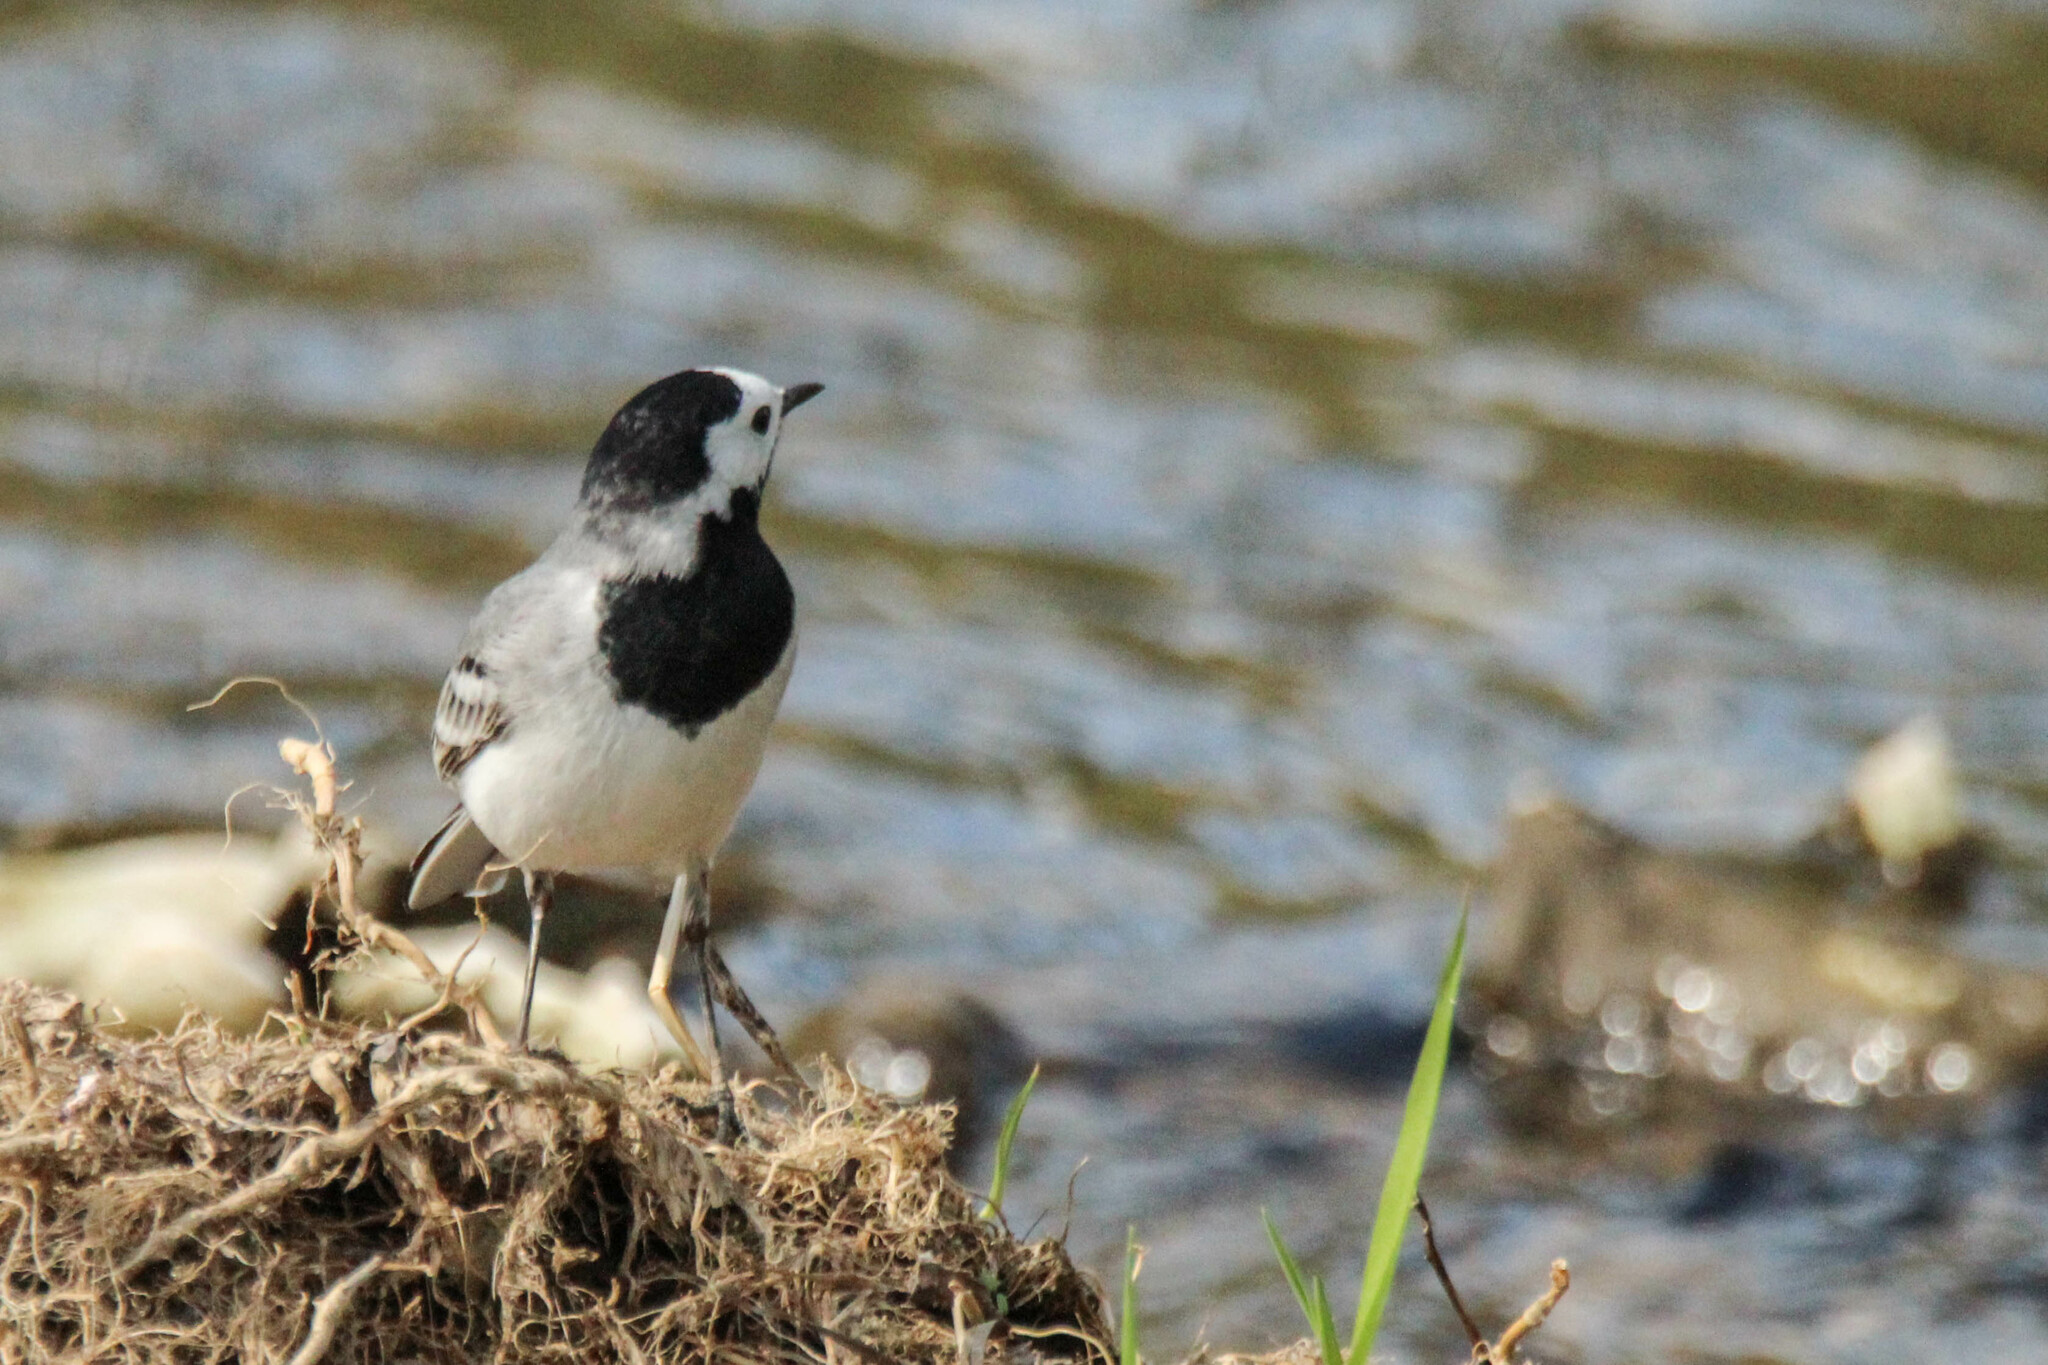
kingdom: Animalia
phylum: Chordata
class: Aves
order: Passeriformes
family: Motacillidae
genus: Motacilla
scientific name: Motacilla alba
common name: White wagtail
